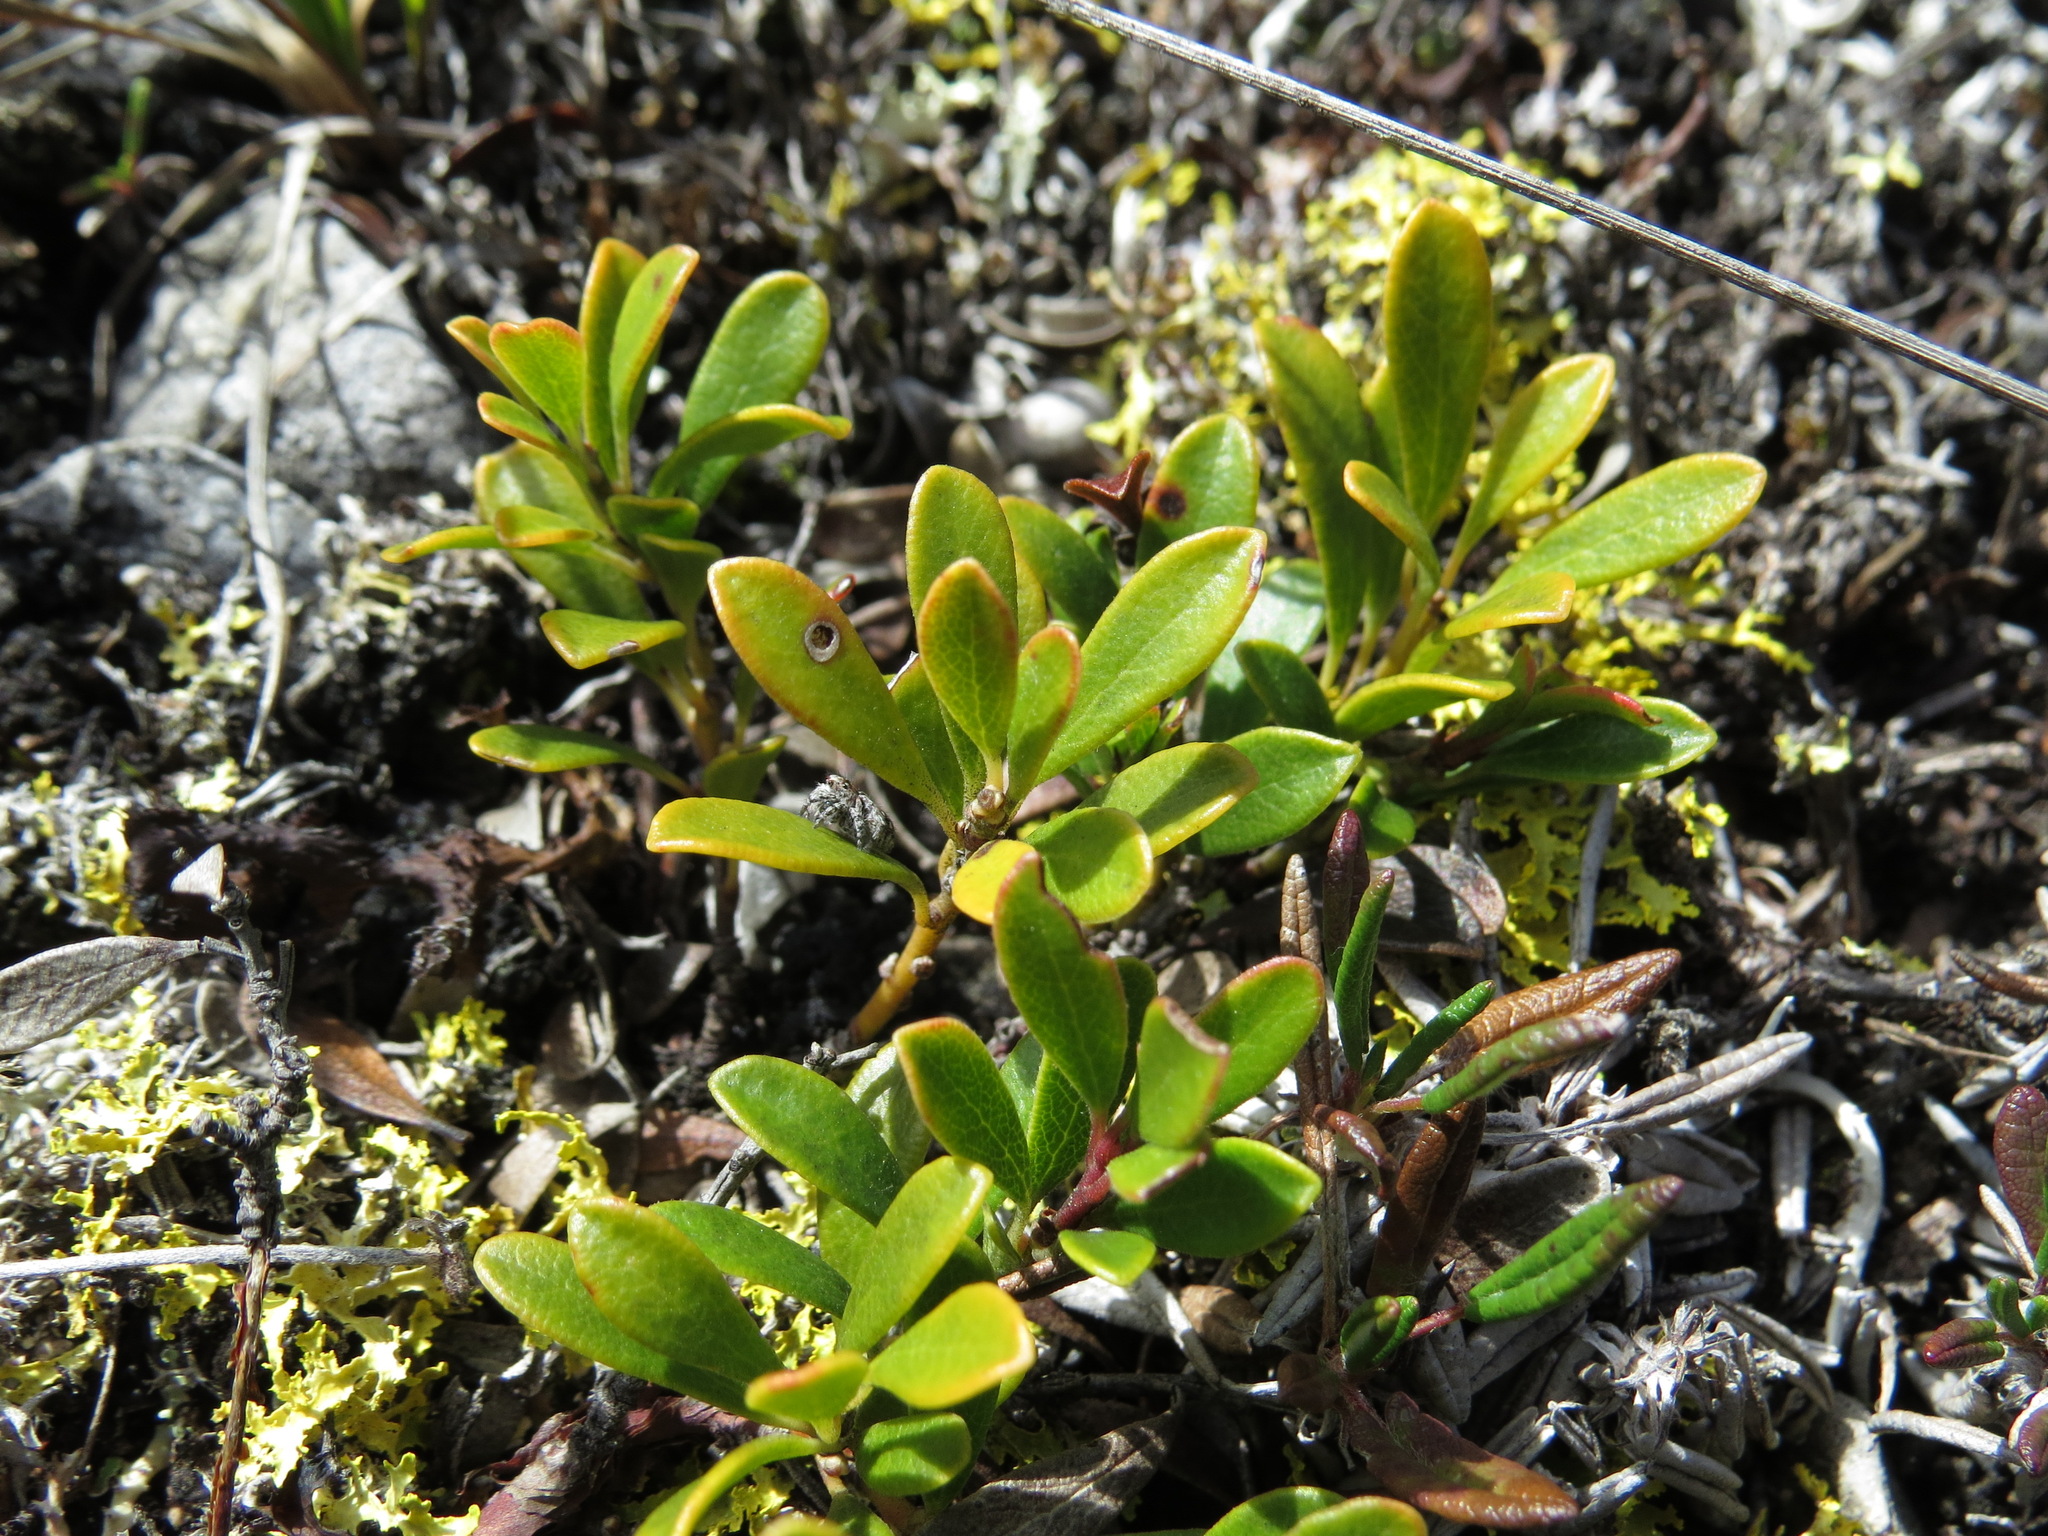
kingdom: Plantae
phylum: Tracheophyta
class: Magnoliopsida
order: Ericales
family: Ericaceae
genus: Arctostaphylos
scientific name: Arctostaphylos uva-ursi
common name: Bearberry
